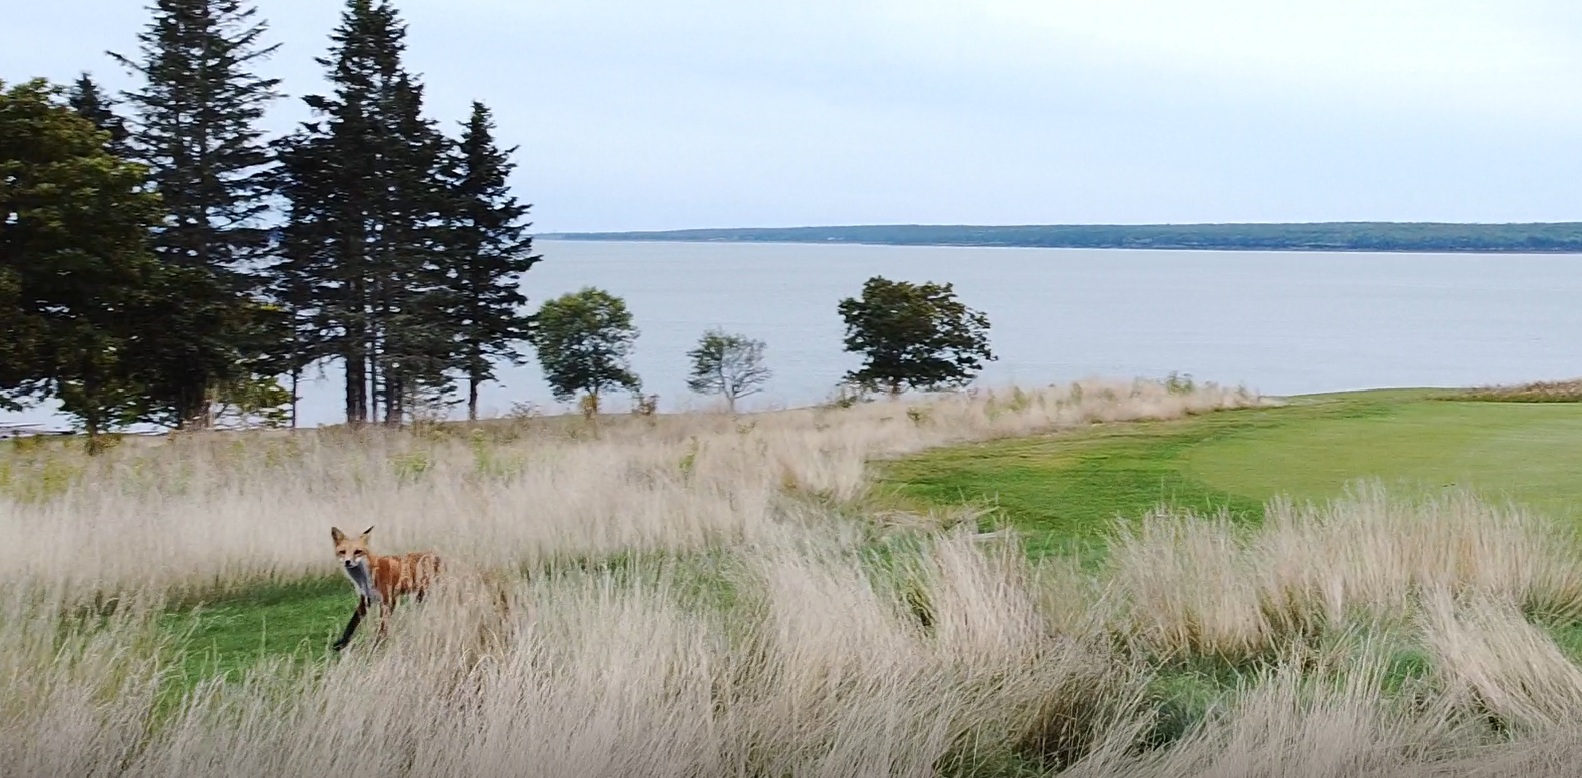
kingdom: Animalia
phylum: Chordata
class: Mammalia
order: Carnivora
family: Canidae
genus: Vulpes
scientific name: Vulpes vulpes
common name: Red fox
